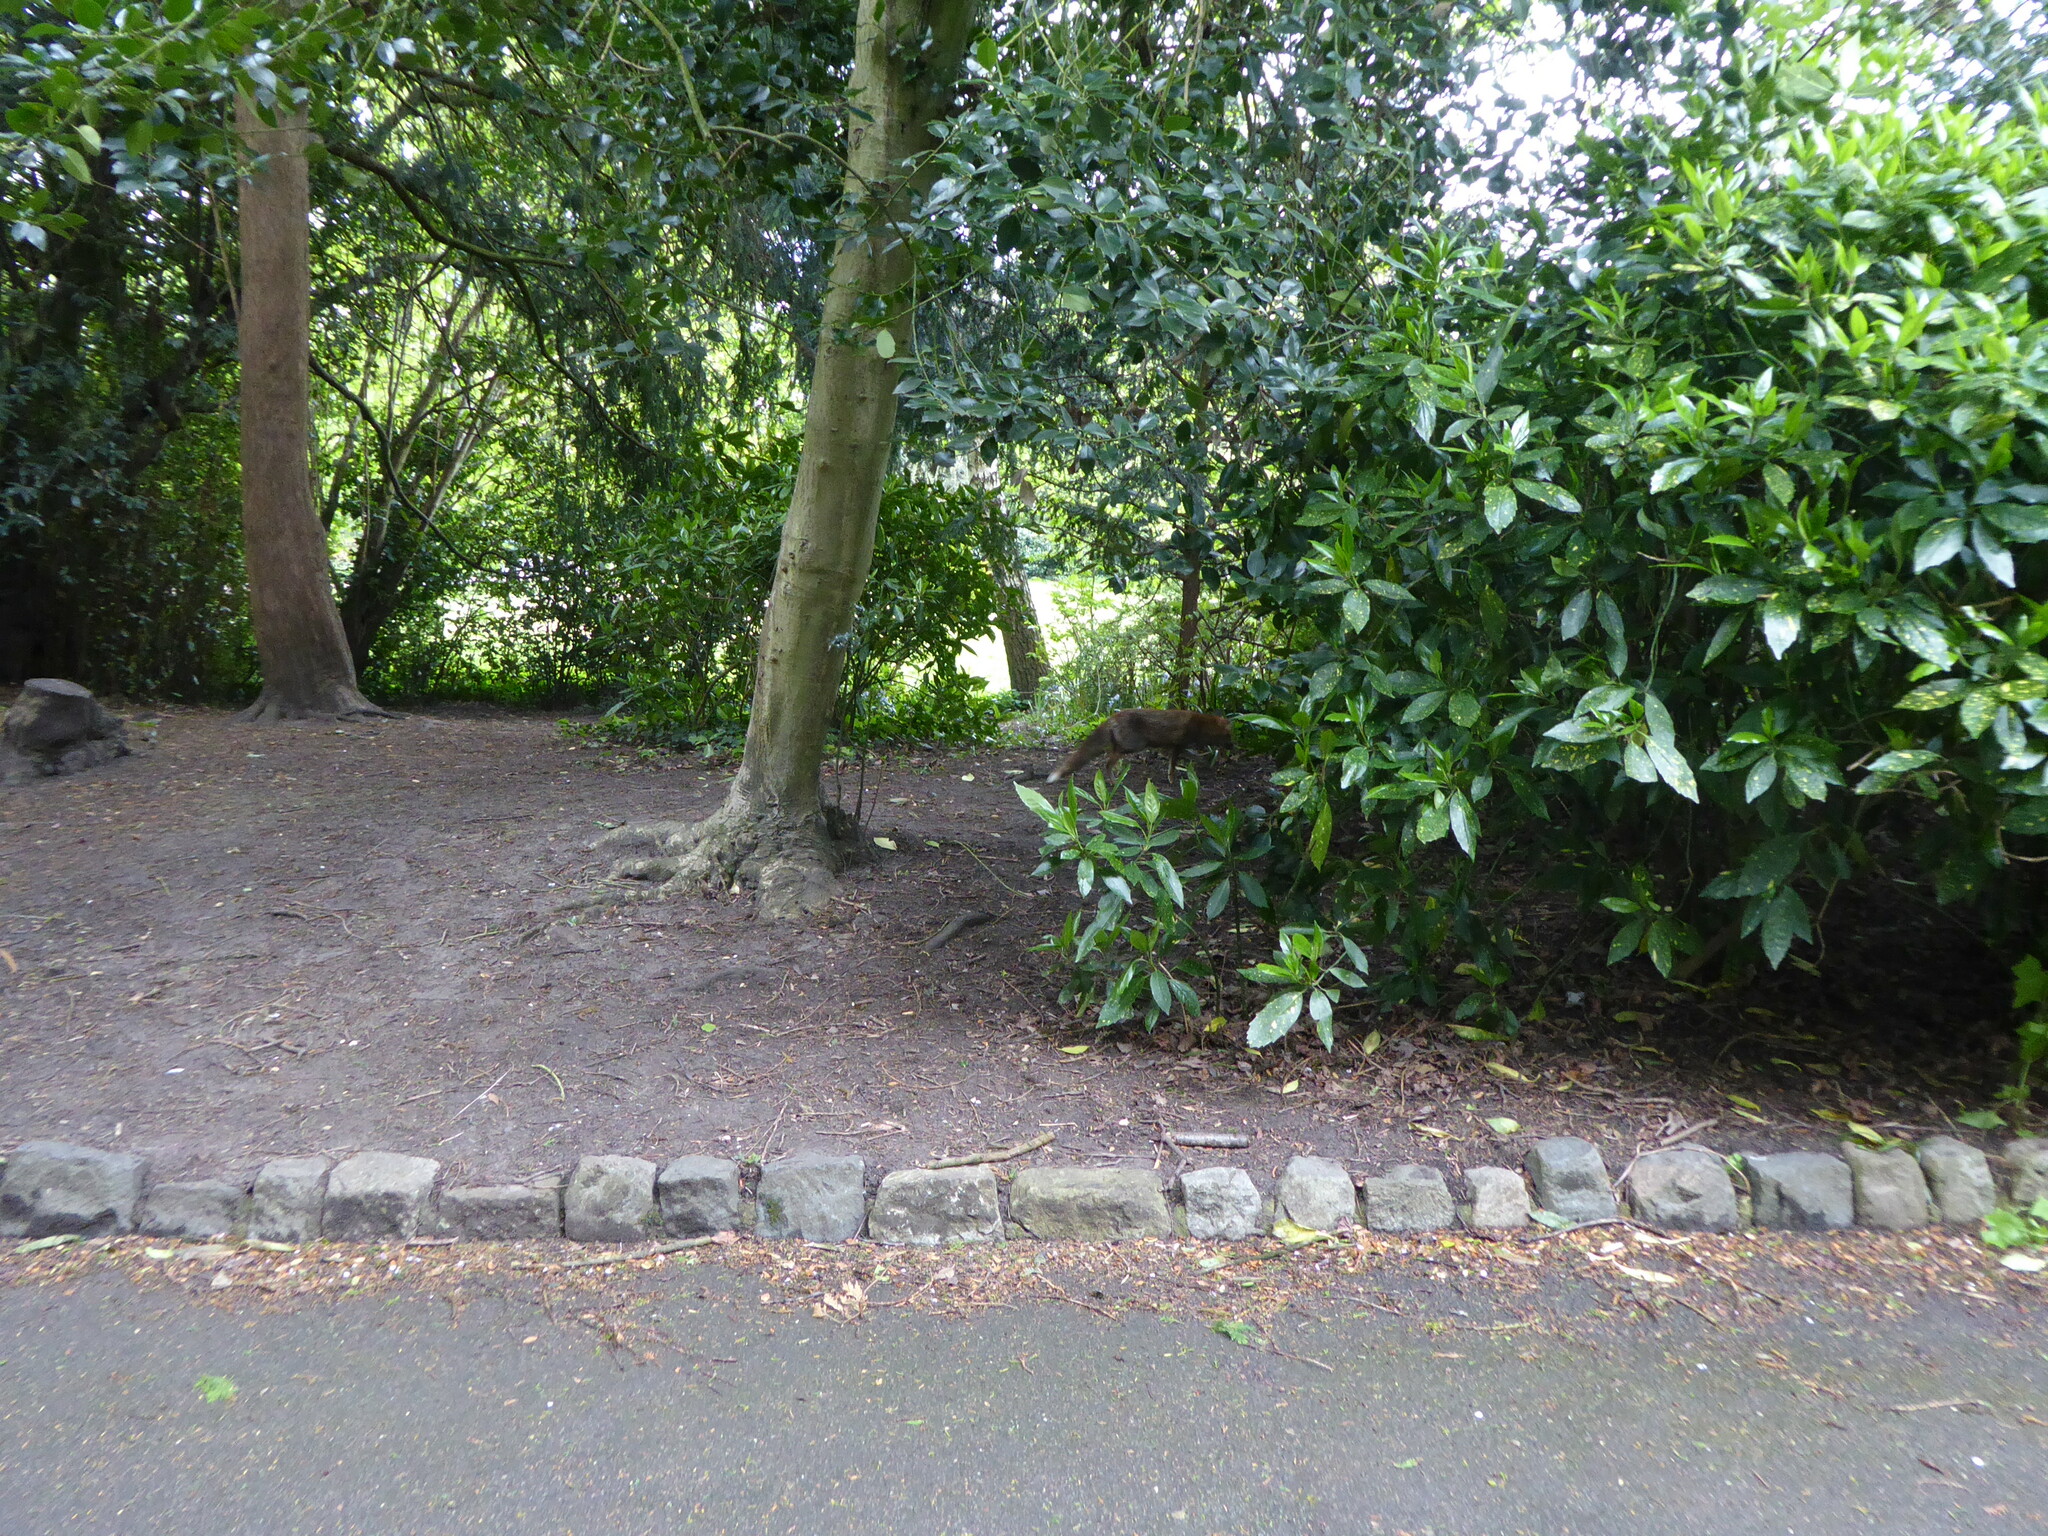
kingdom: Animalia
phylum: Chordata
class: Mammalia
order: Carnivora
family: Canidae
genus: Vulpes
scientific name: Vulpes vulpes
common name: Red fox
